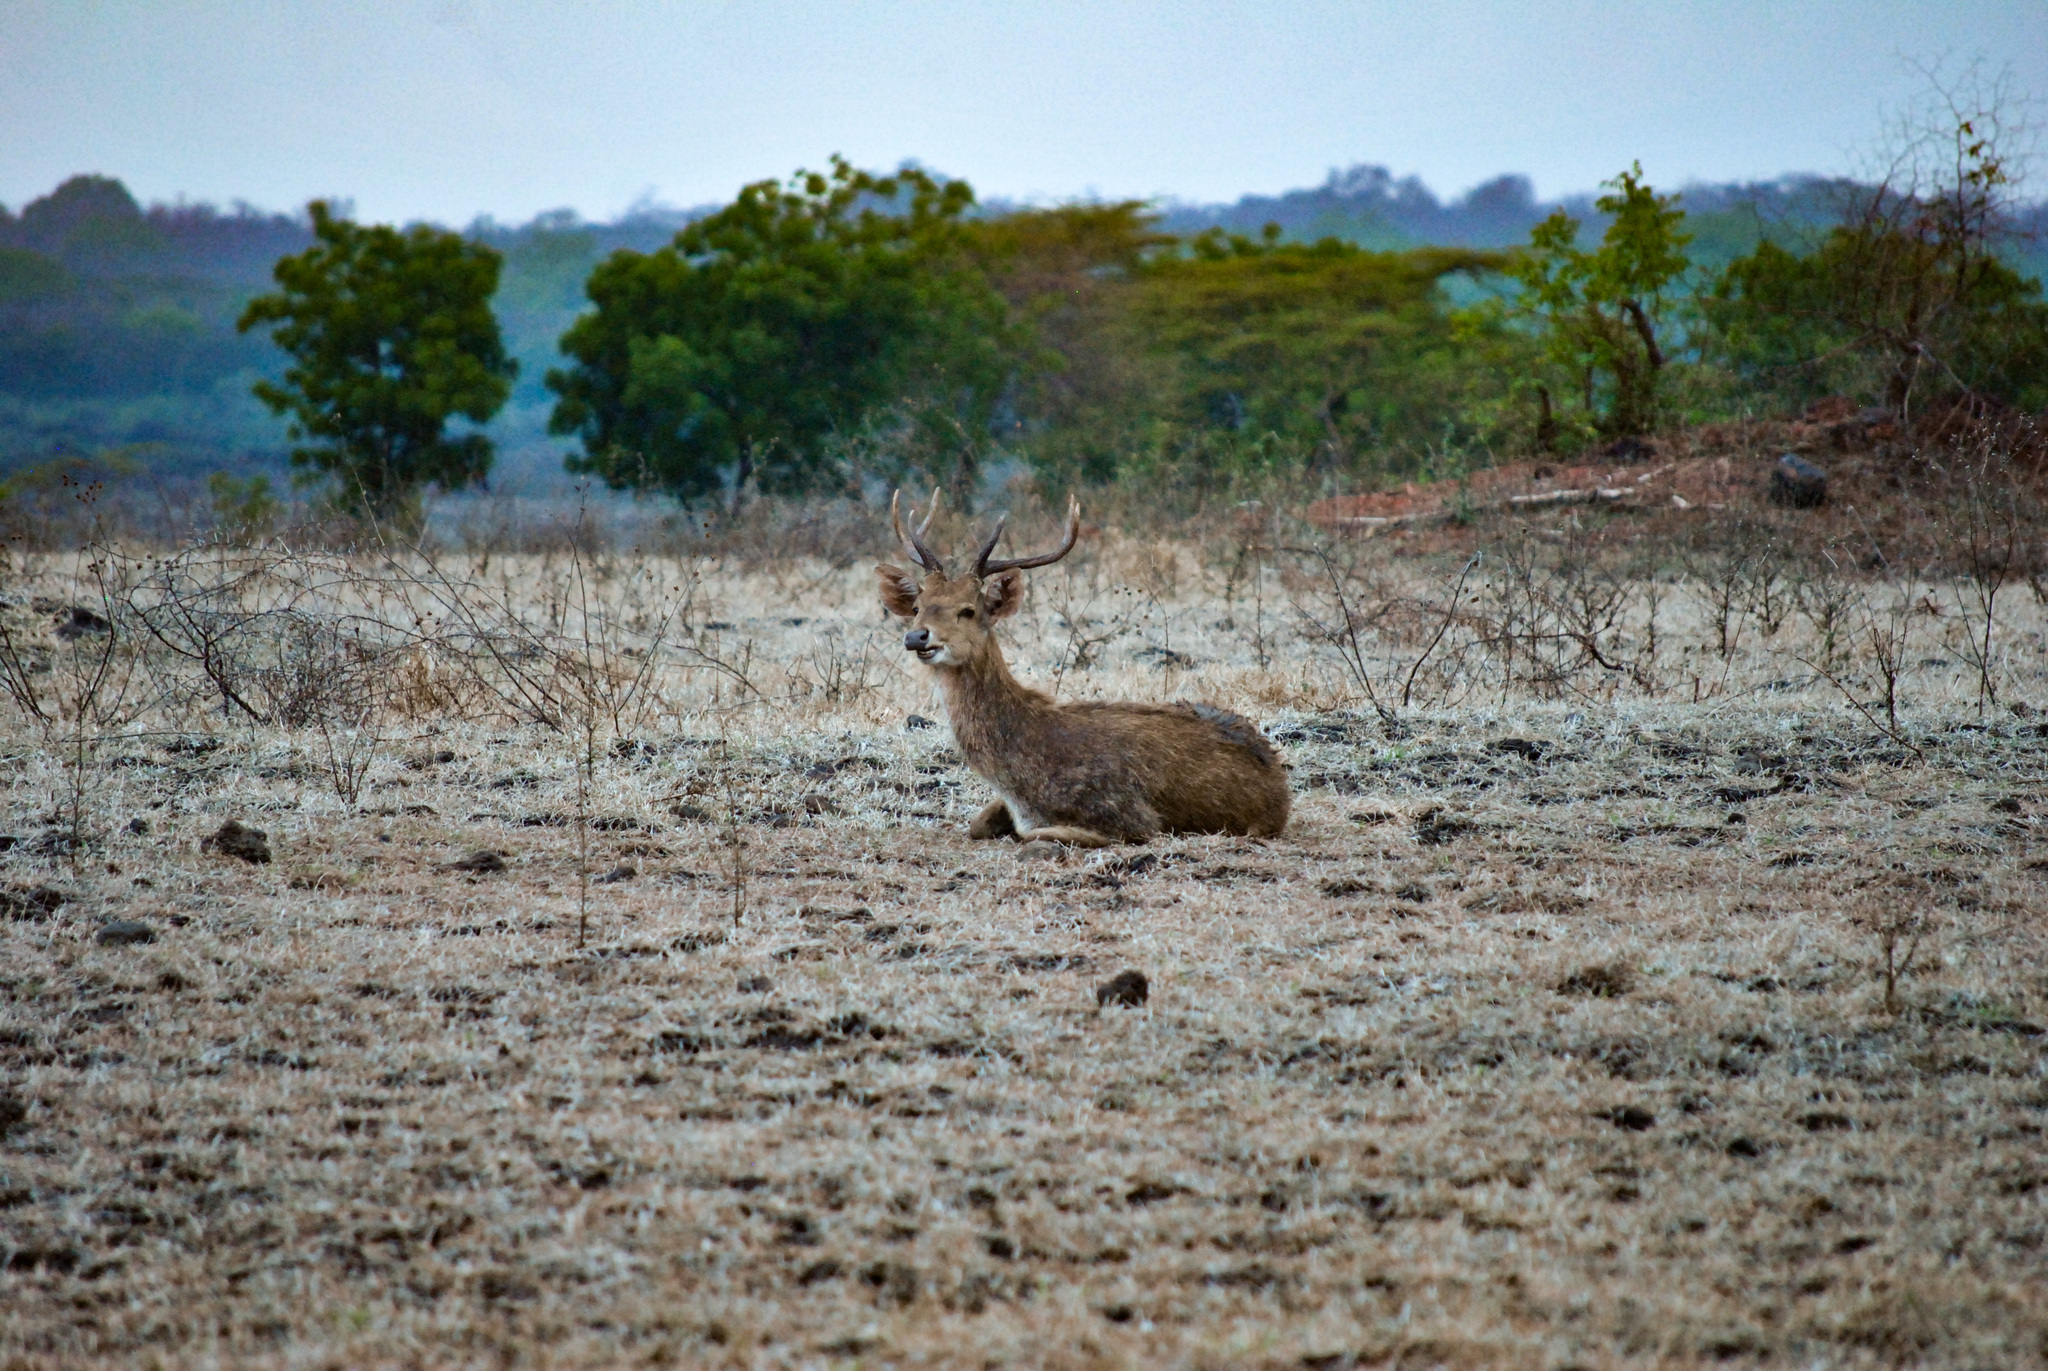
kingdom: Animalia
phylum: Chordata
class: Mammalia
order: Artiodactyla
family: Cervidae
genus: Rusa
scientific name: Rusa timorensis
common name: Javan rusa
